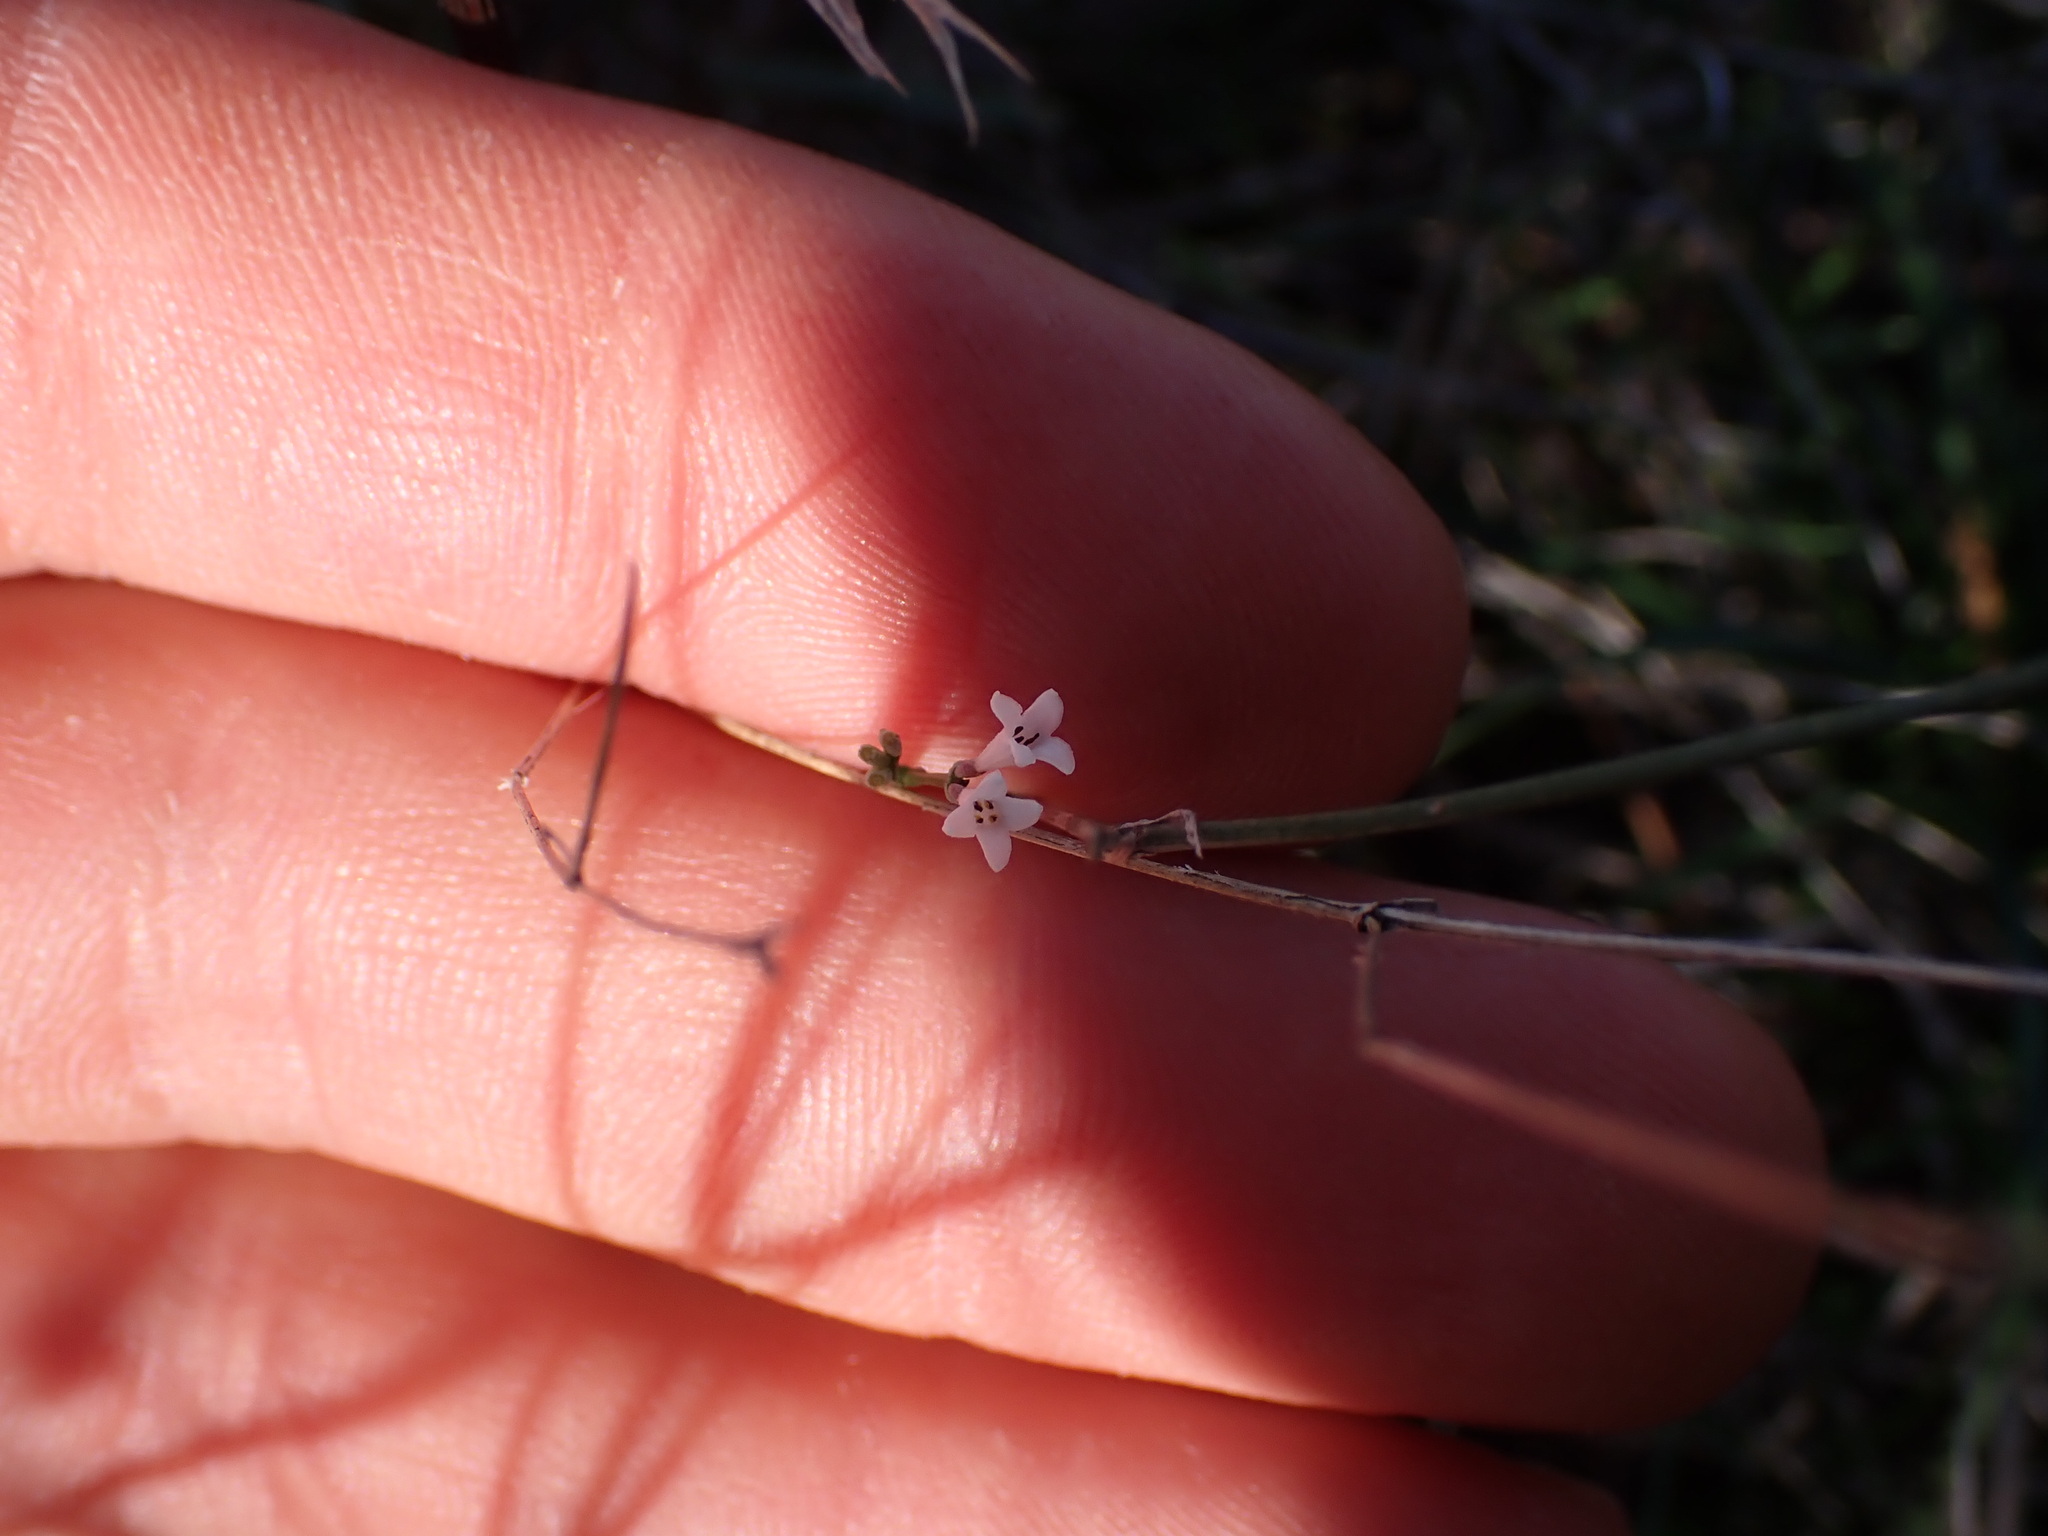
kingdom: Plantae
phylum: Tracheophyta
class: Magnoliopsida
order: Gentianales
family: Rubiaceae
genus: Cynanchica
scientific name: Cynanchica pyrenaica
